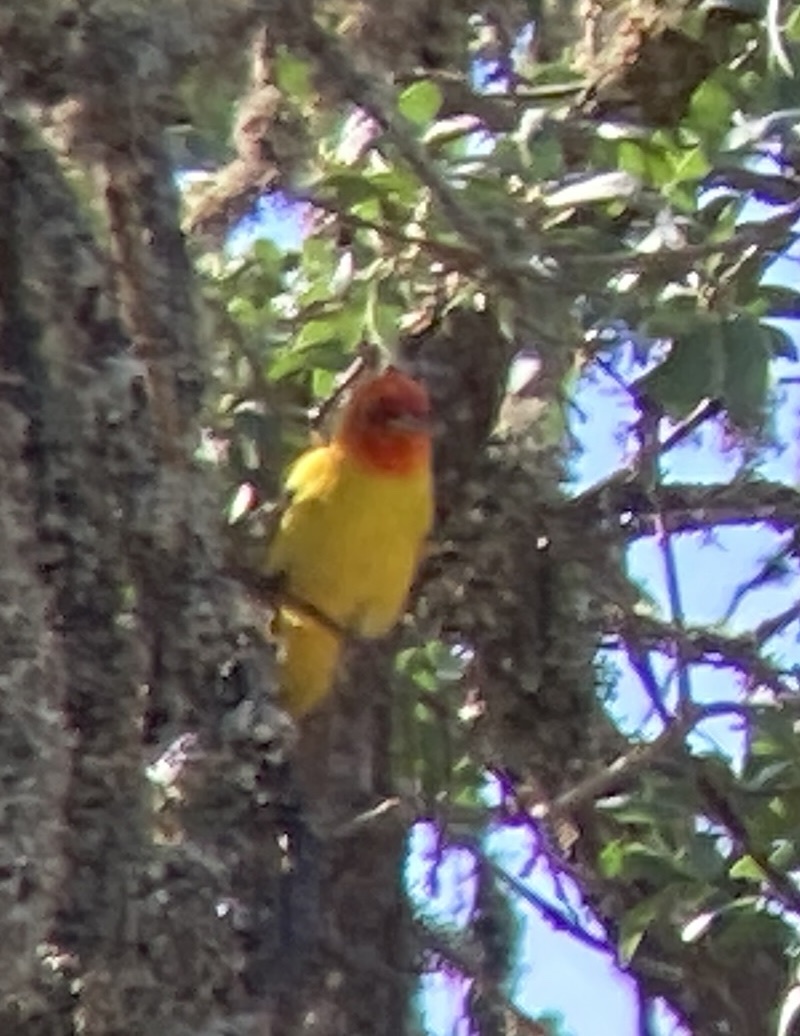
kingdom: Animalia
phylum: Chordata
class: Aves
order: Passeriformes
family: Cardinalidae
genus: Piranga
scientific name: Piranga ludoviciana
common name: Western tanager
